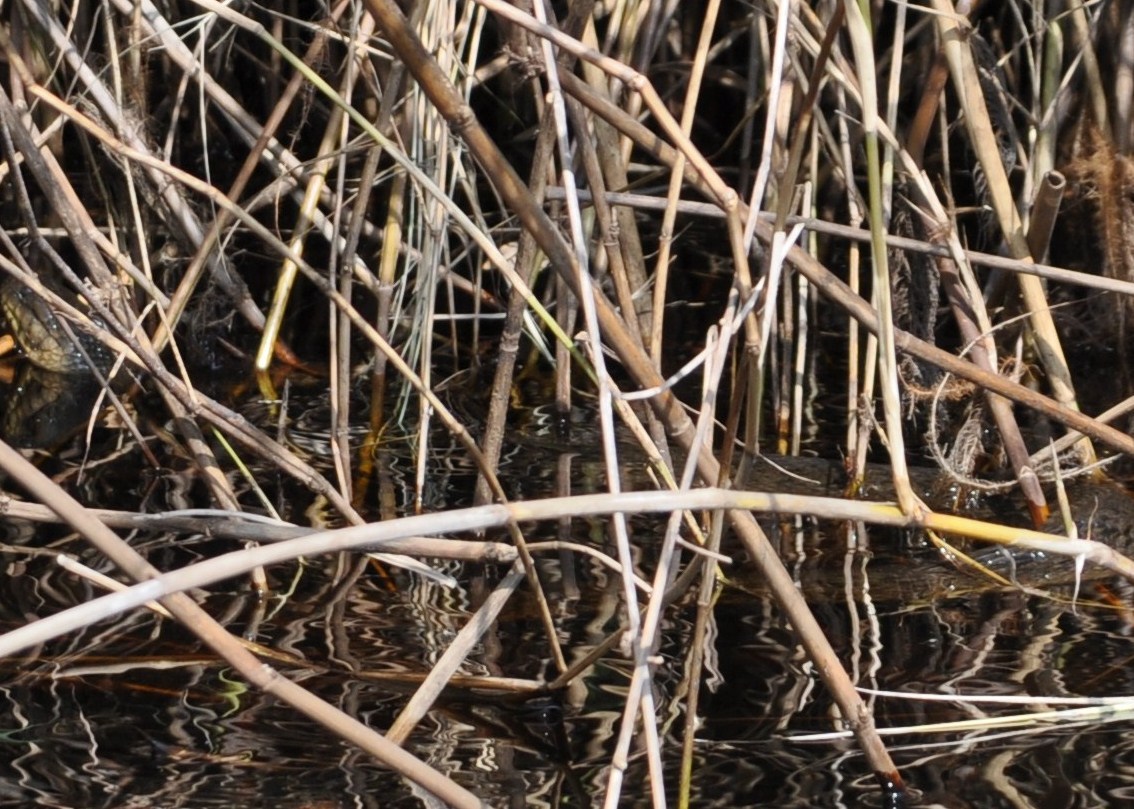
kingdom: Animalia
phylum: Chordata
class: Squamata
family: Colubridae
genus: Nerodia
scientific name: Nerodia floridana
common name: Florida green watersnake
